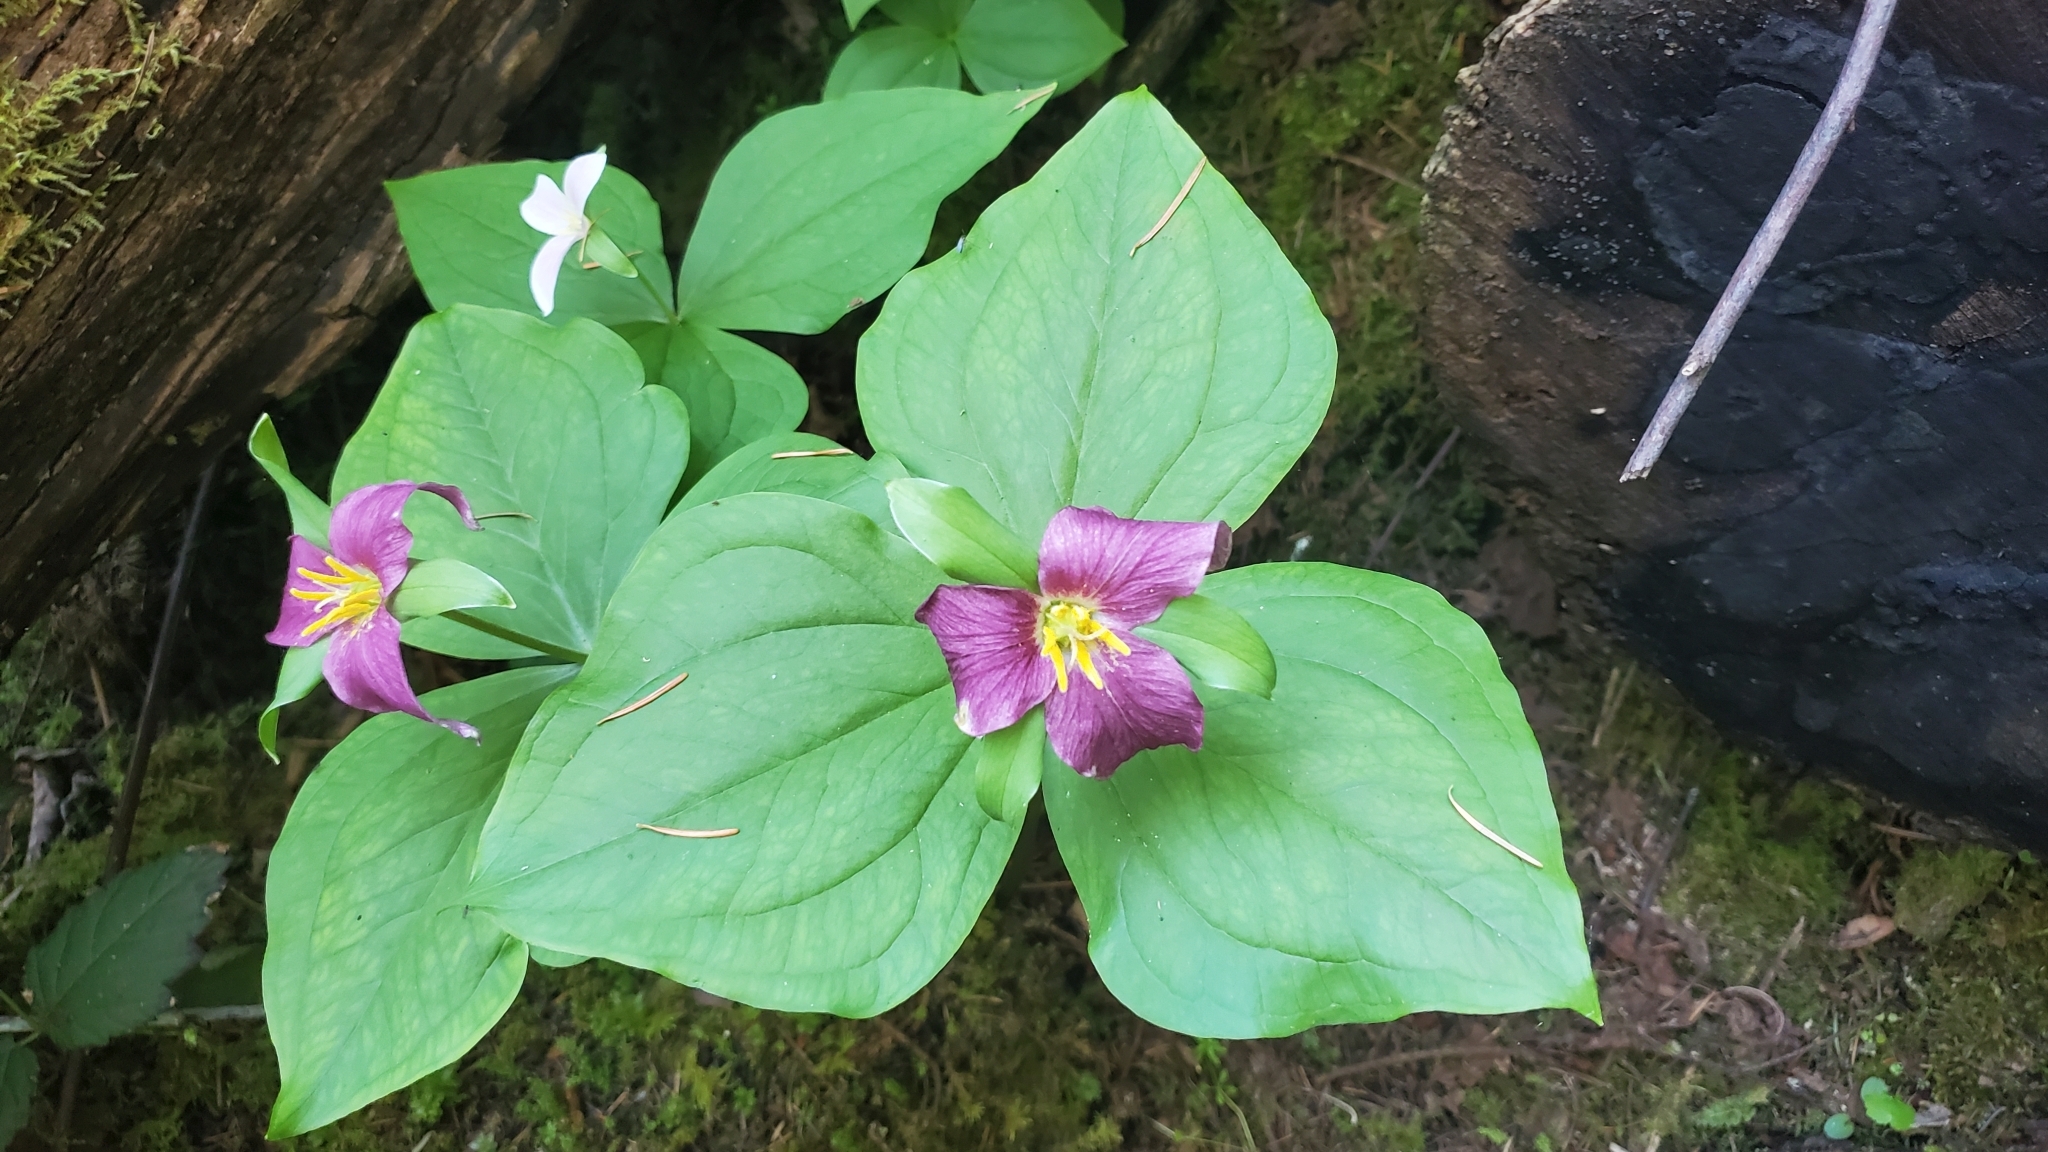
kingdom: Plantae
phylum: Tracheophyta
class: Liliopsida
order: Liliales
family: Melanthiaceae
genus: Trillium
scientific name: Trillium ovatum
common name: Pacific trillium
